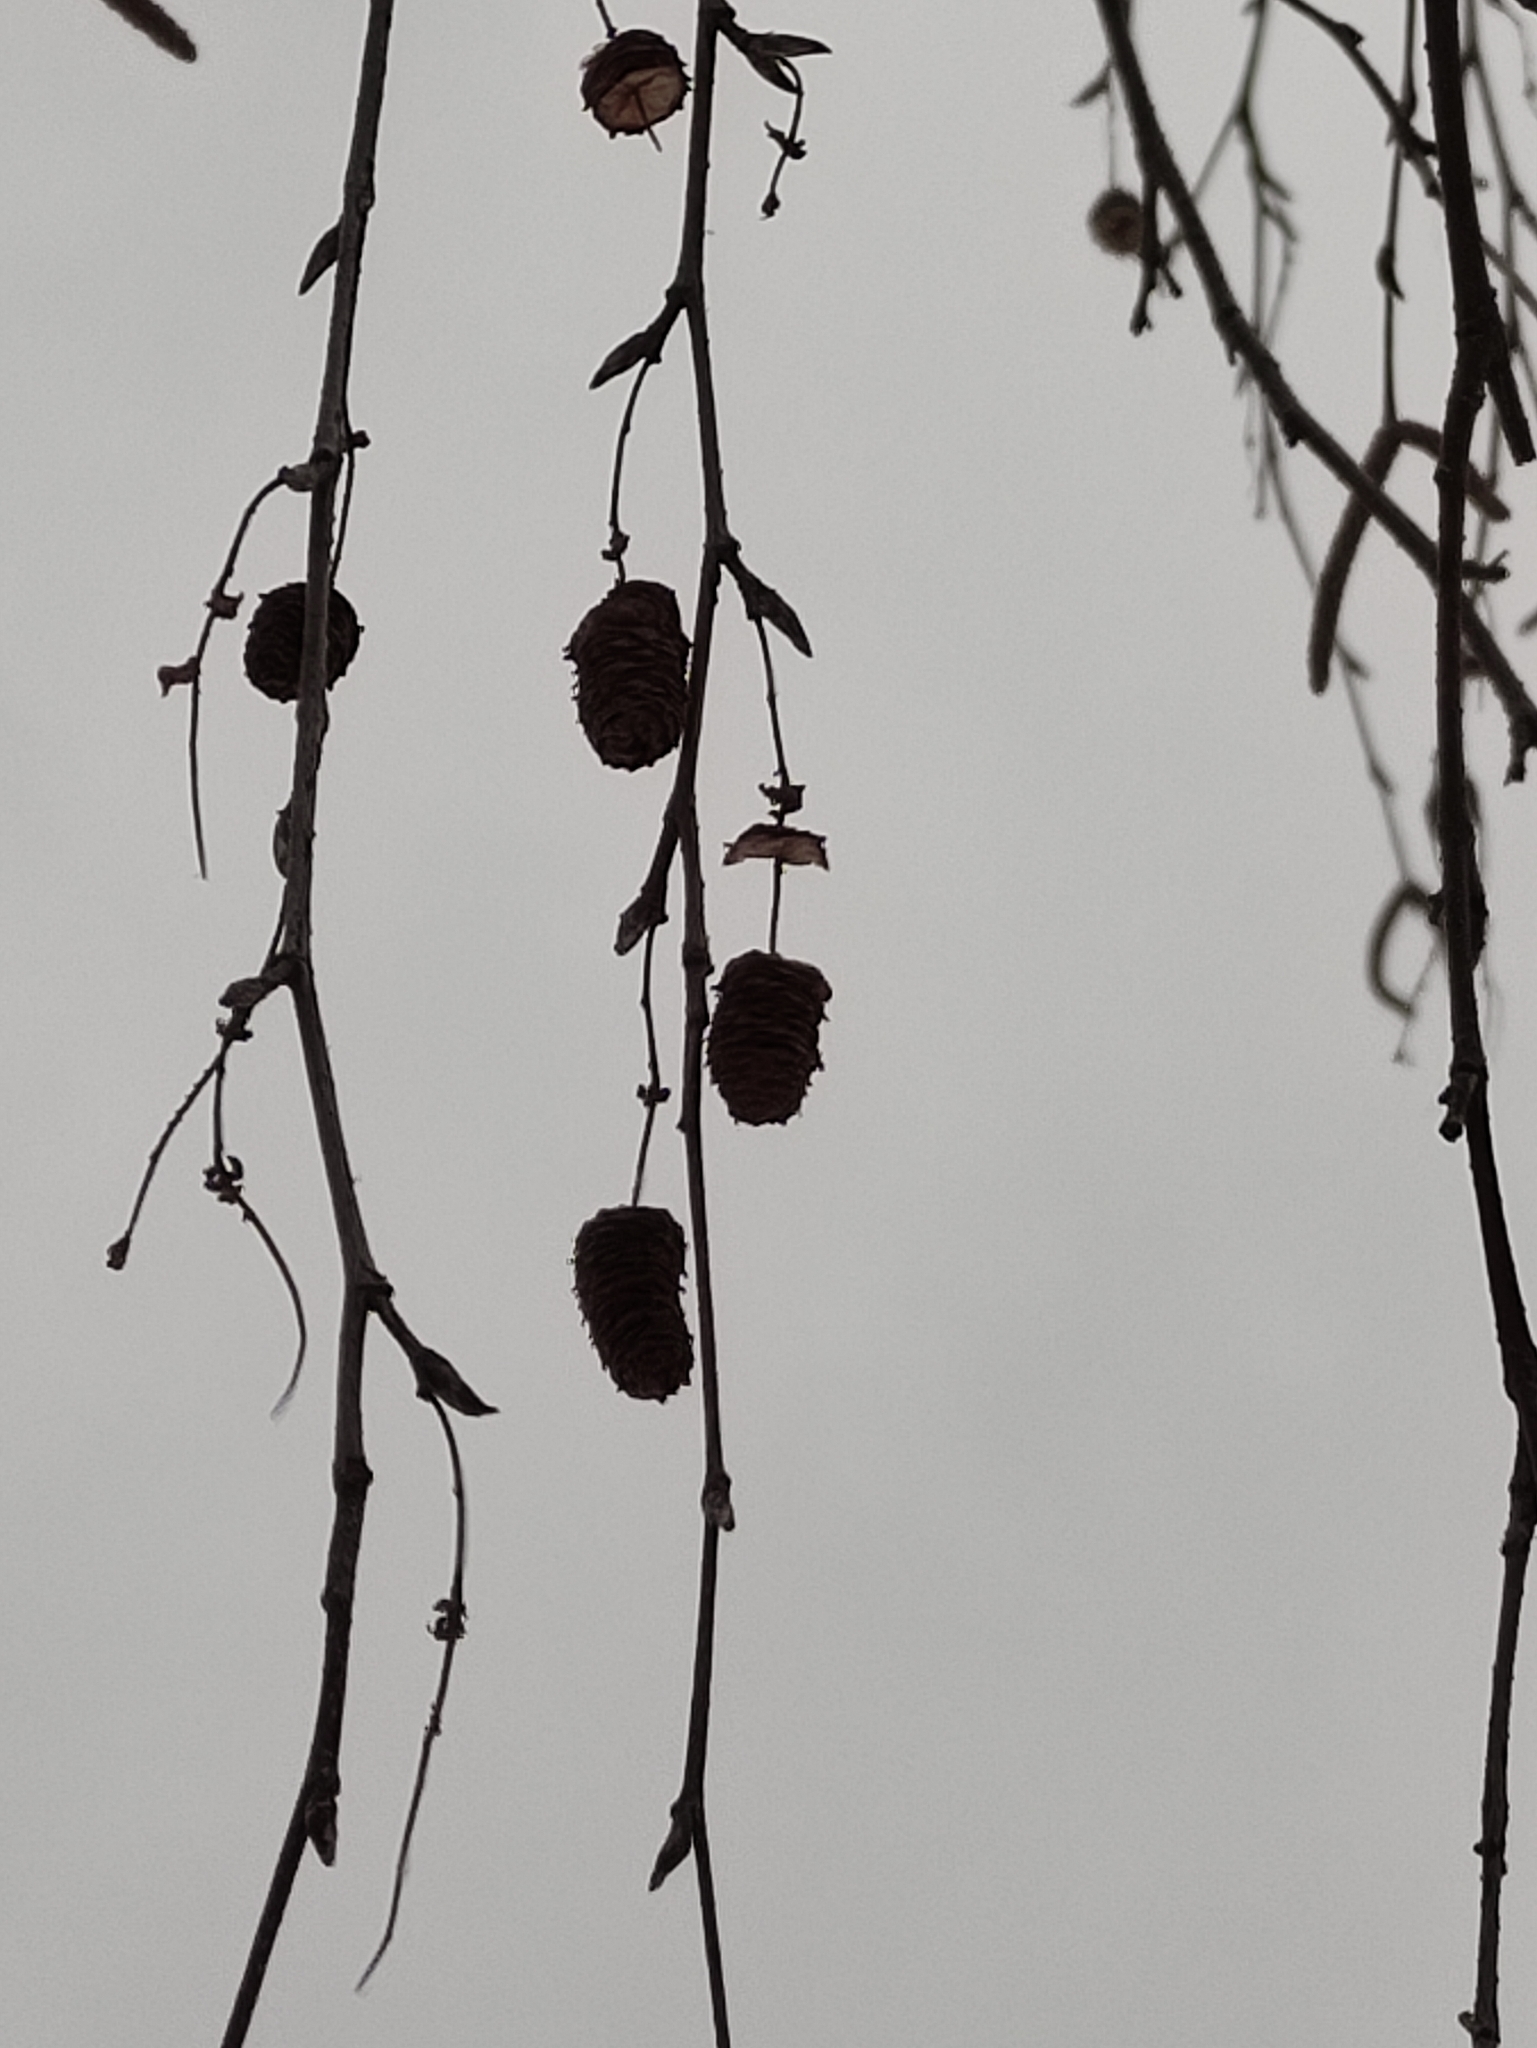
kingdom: Plantae
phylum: Tracheophyta
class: Magnoliopsida
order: Fagales
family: Betulaceae
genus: Betula
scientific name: Betula pendula
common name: Silver birch
